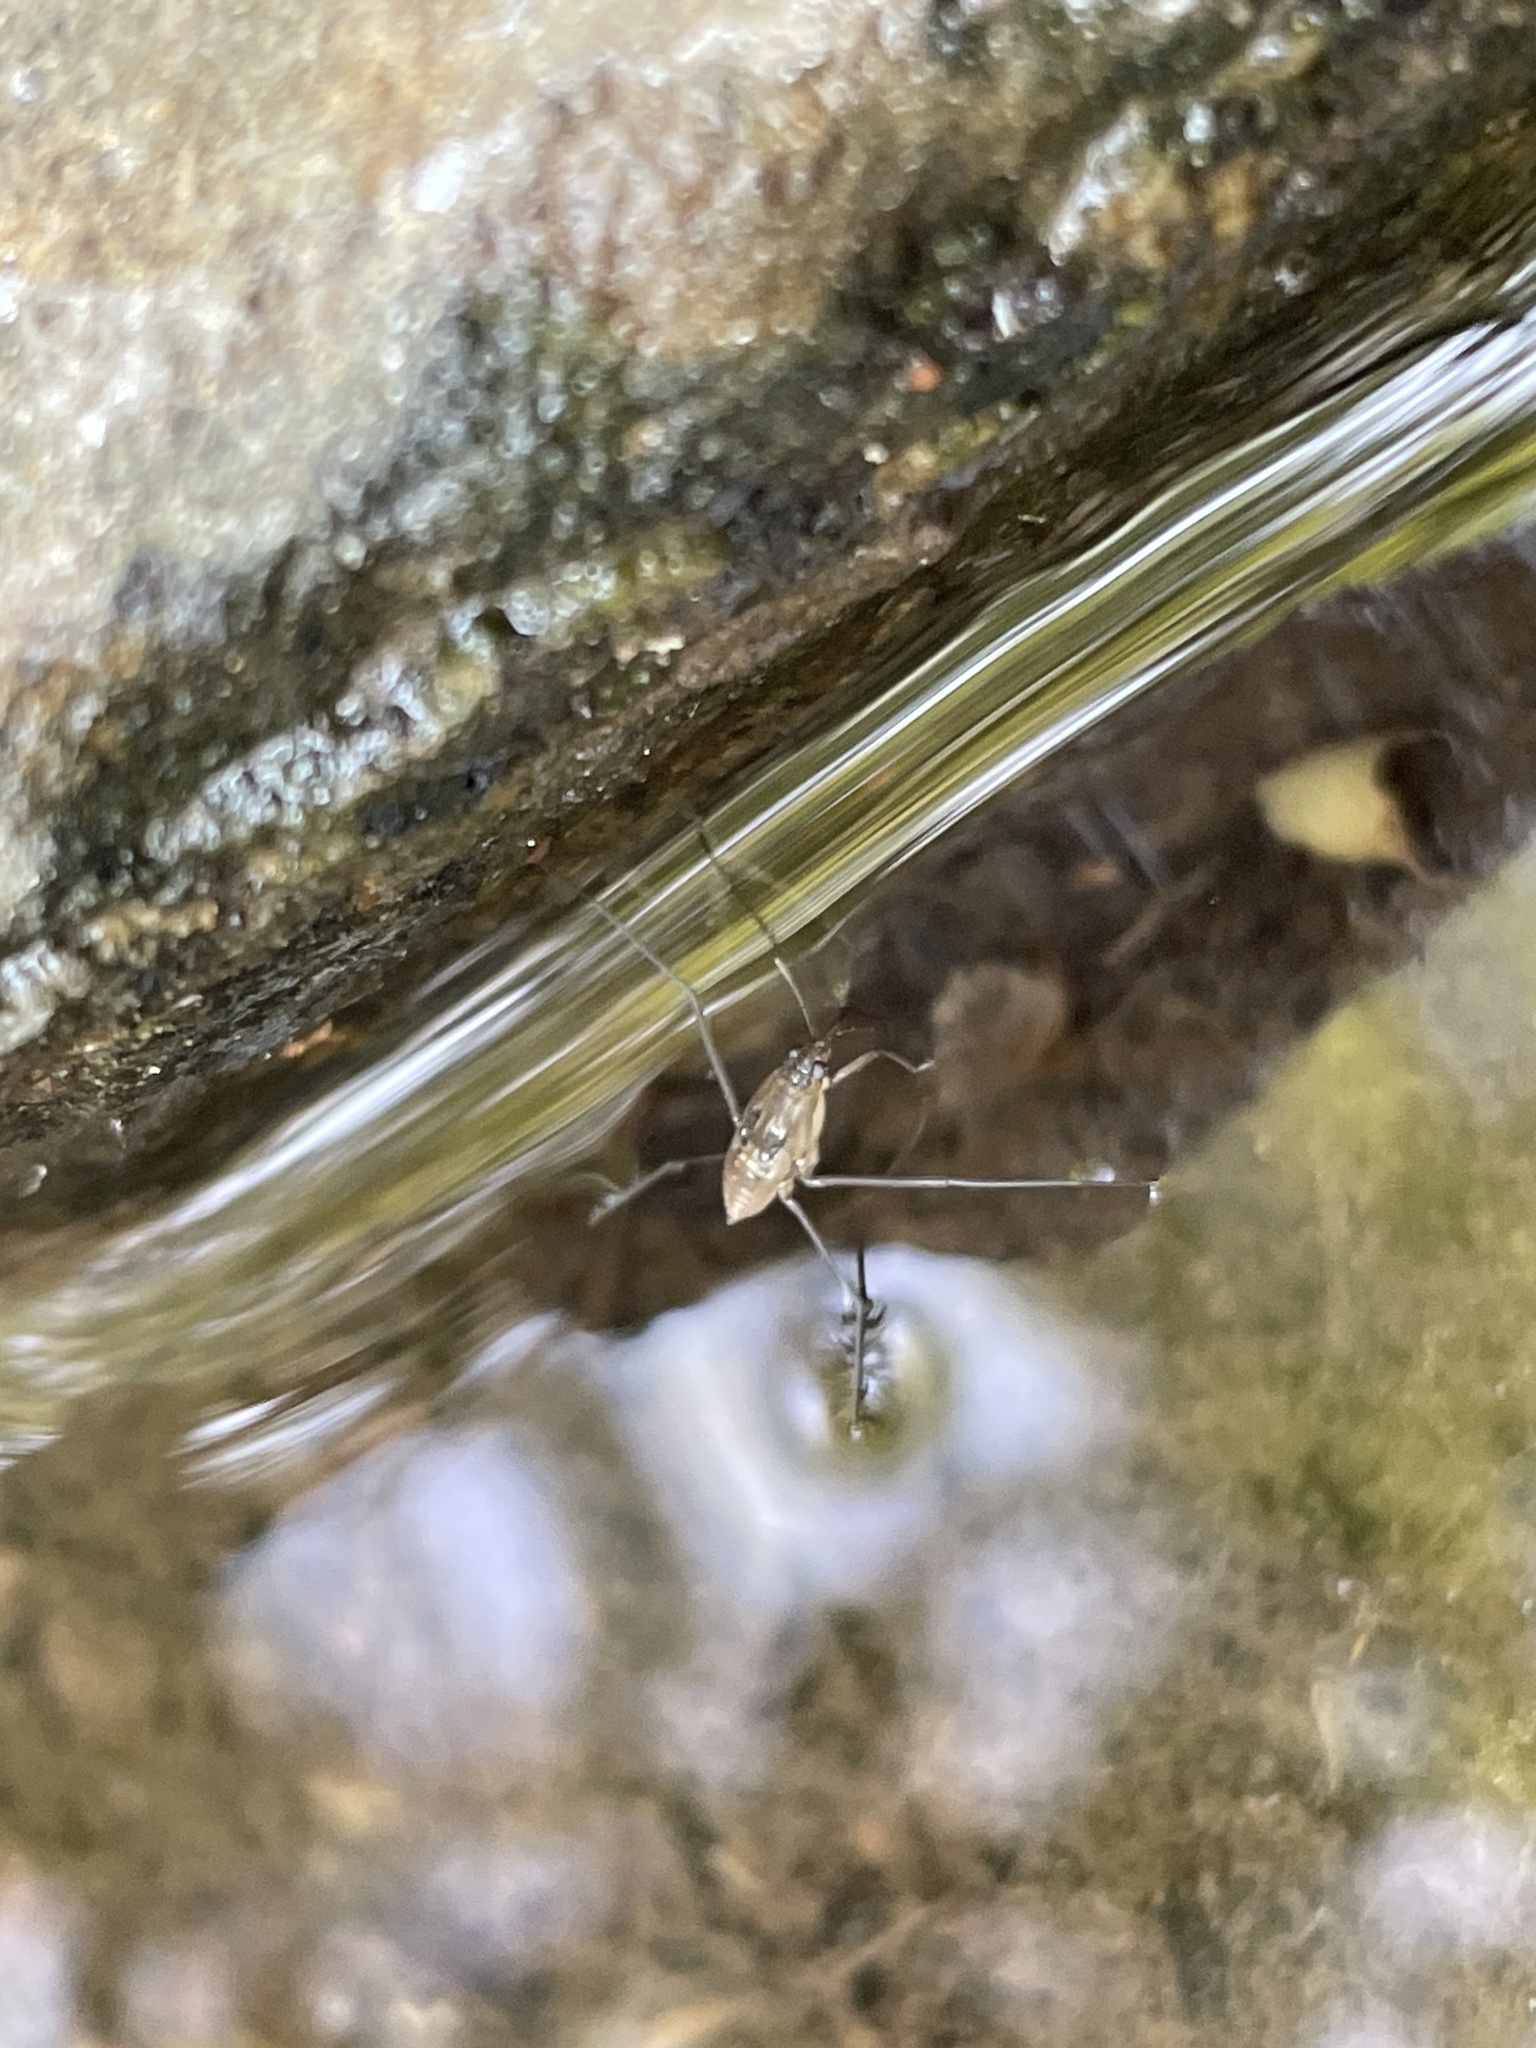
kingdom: Animalia
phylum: Arthropoda
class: Insecta
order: Hemiptera
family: Gerridae
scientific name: Gerridae
